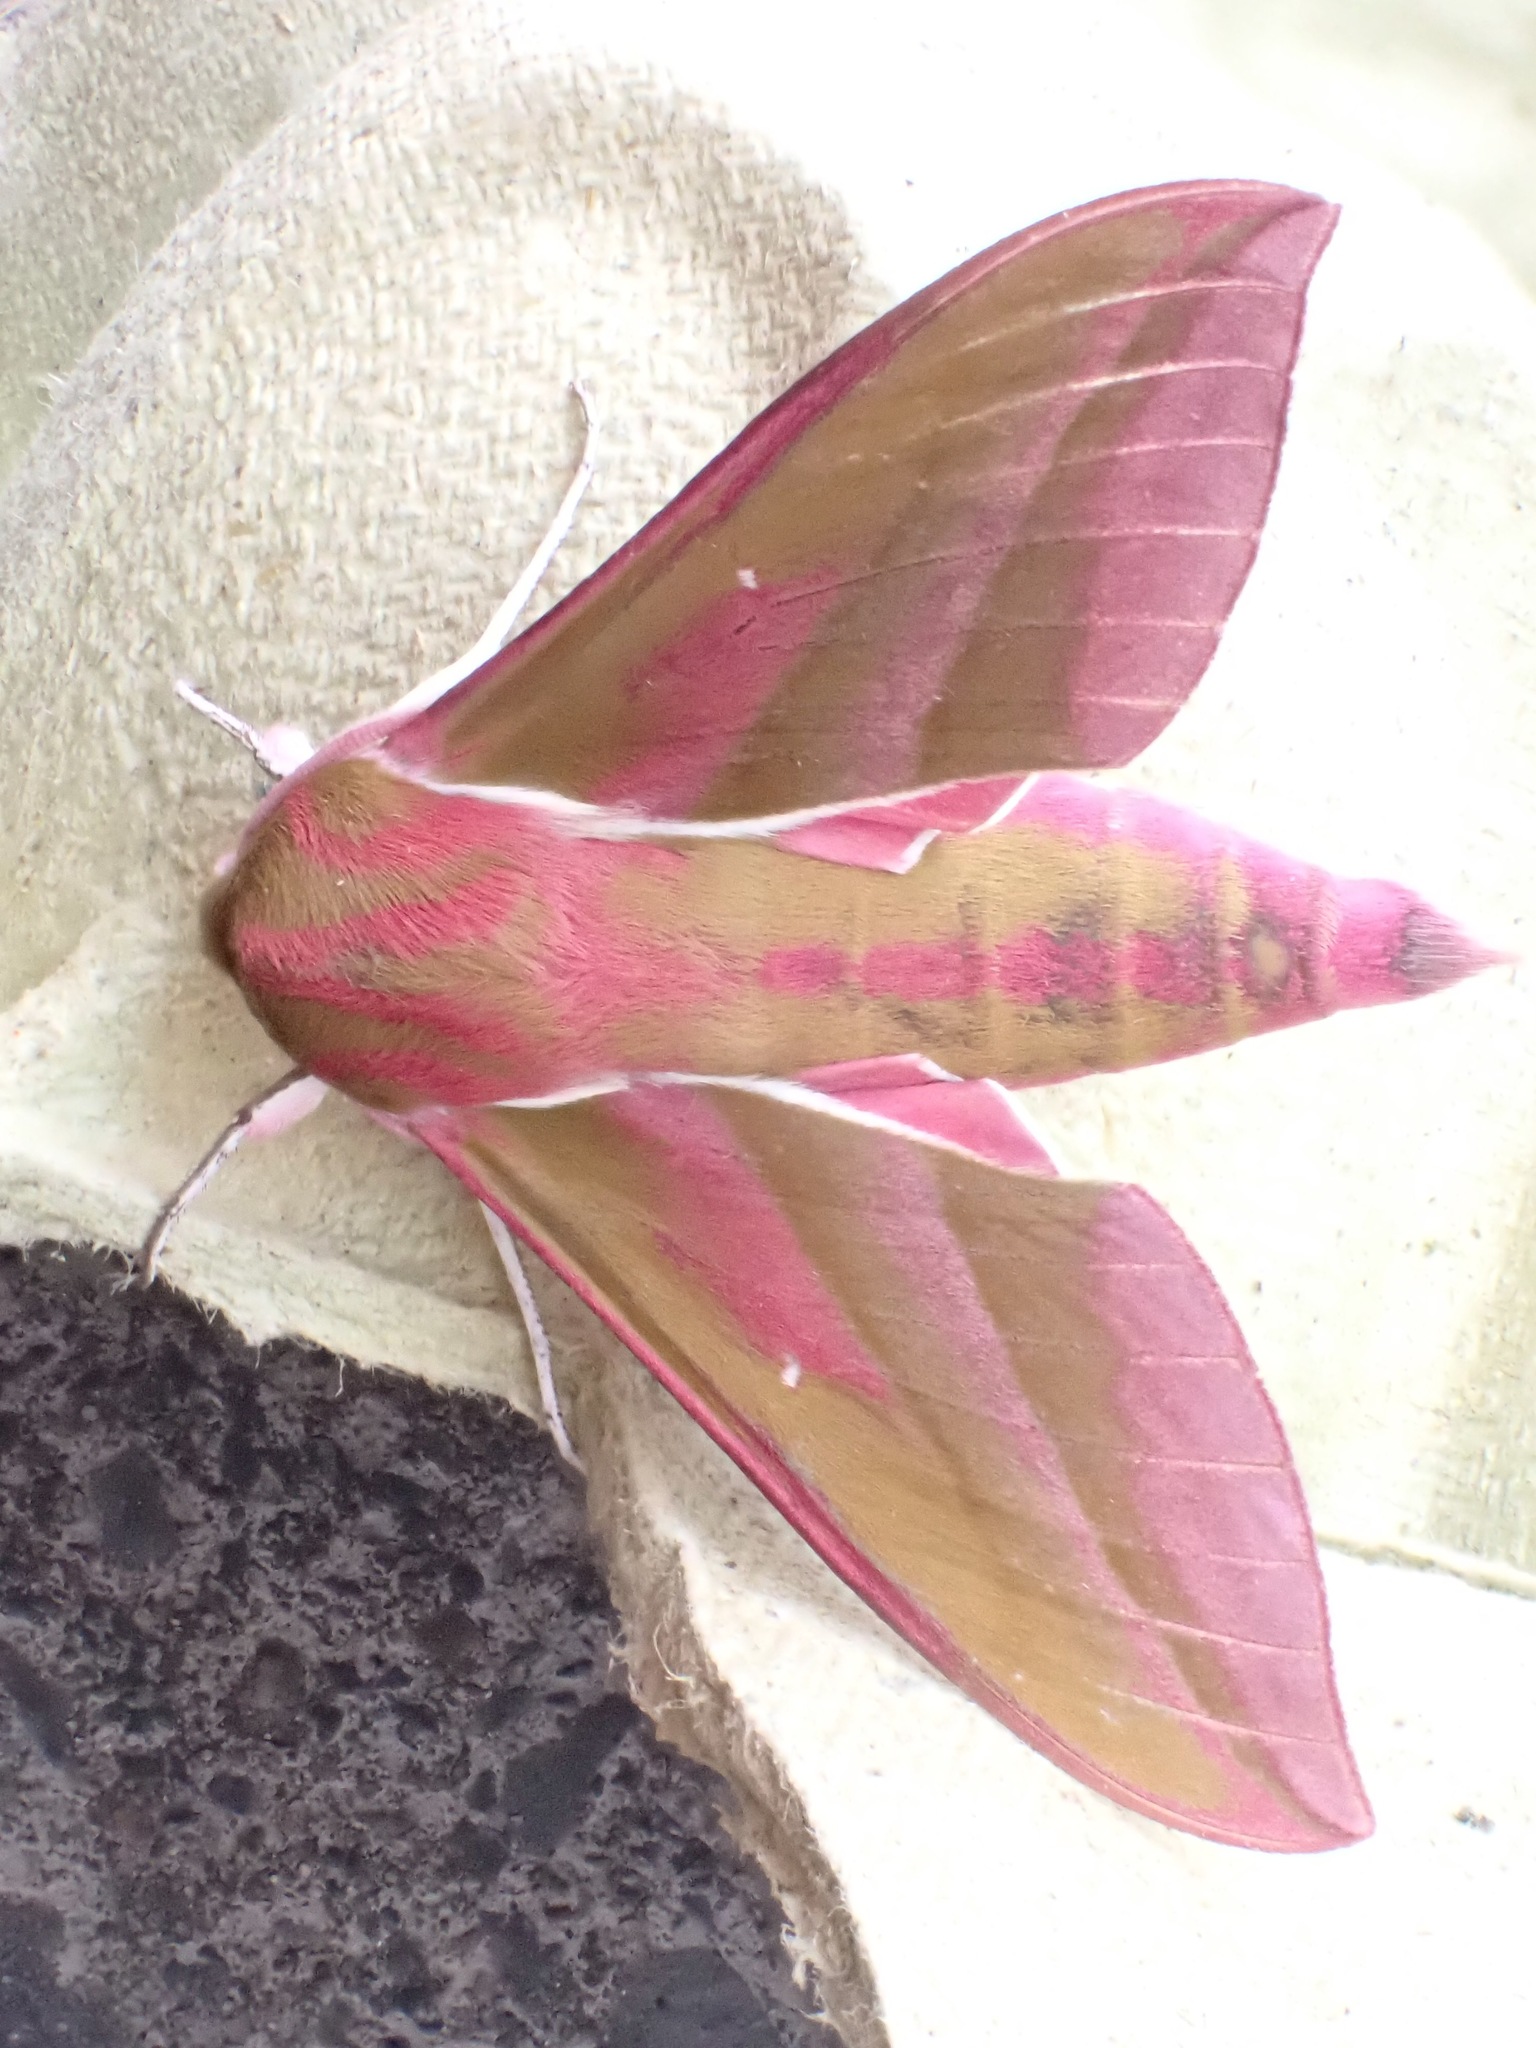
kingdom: Animalia
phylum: Arthropoda
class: Insecta
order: Lepidoptera
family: Sphingidae
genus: Deilephila
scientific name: Deilephila elpenor
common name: Elephant hawk-moth
